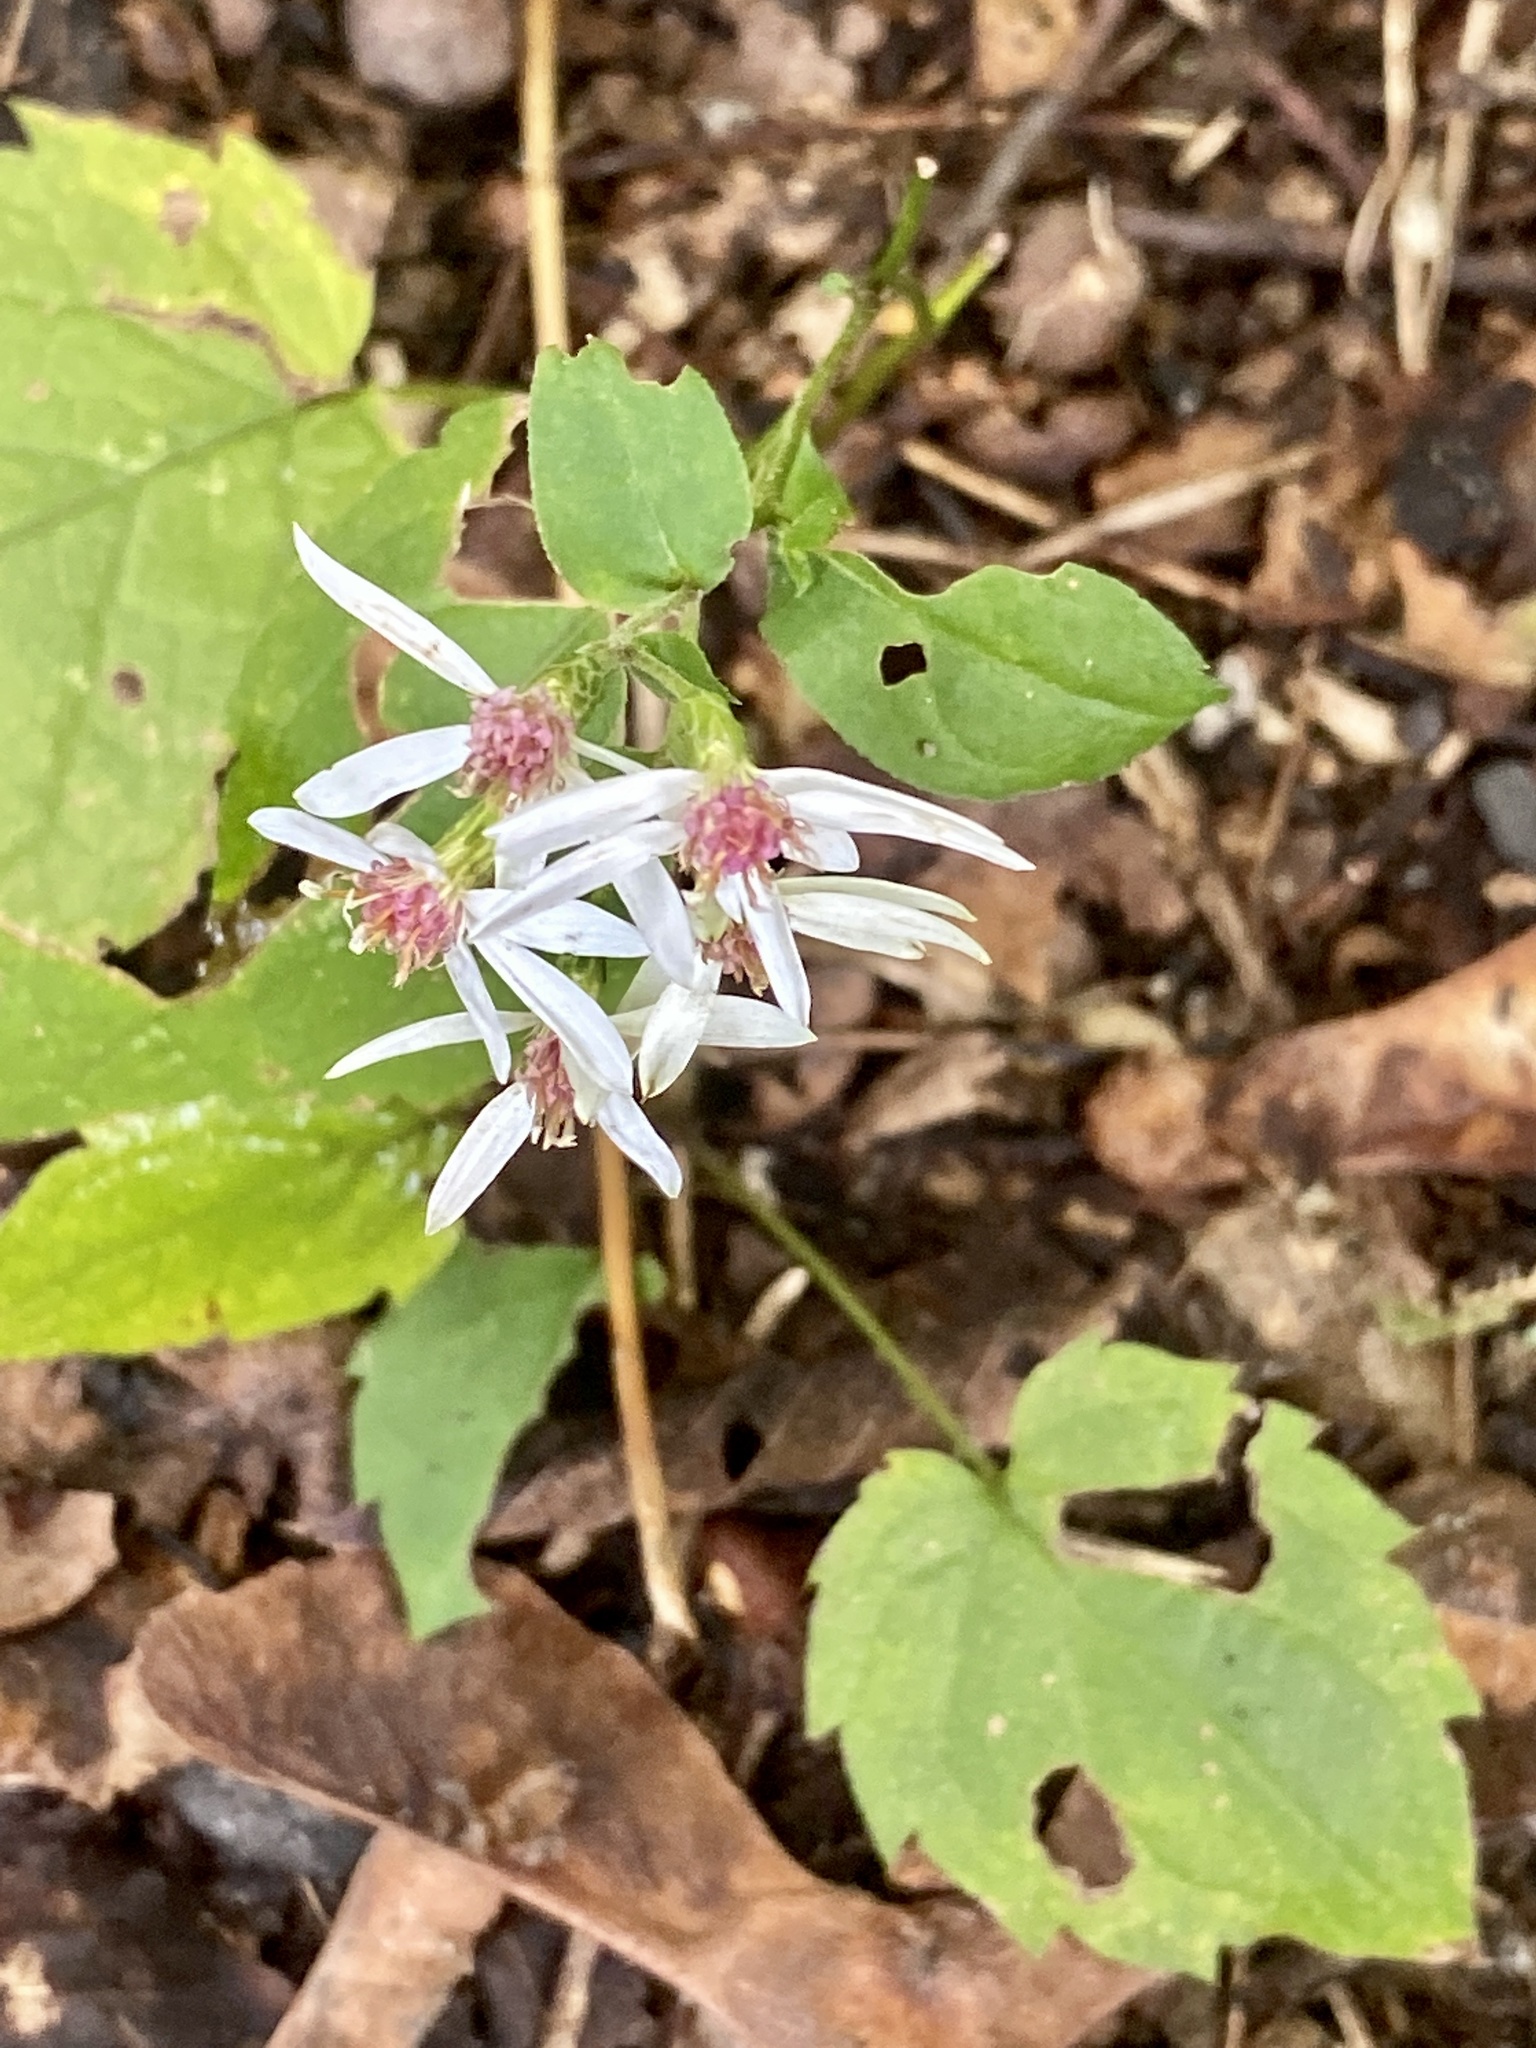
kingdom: Plantae
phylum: Tracheophyta
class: Magnoliopsida
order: Asterales
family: Asteraceae
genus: Eurybia
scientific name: Eurybia divaricata
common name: White wood aster
